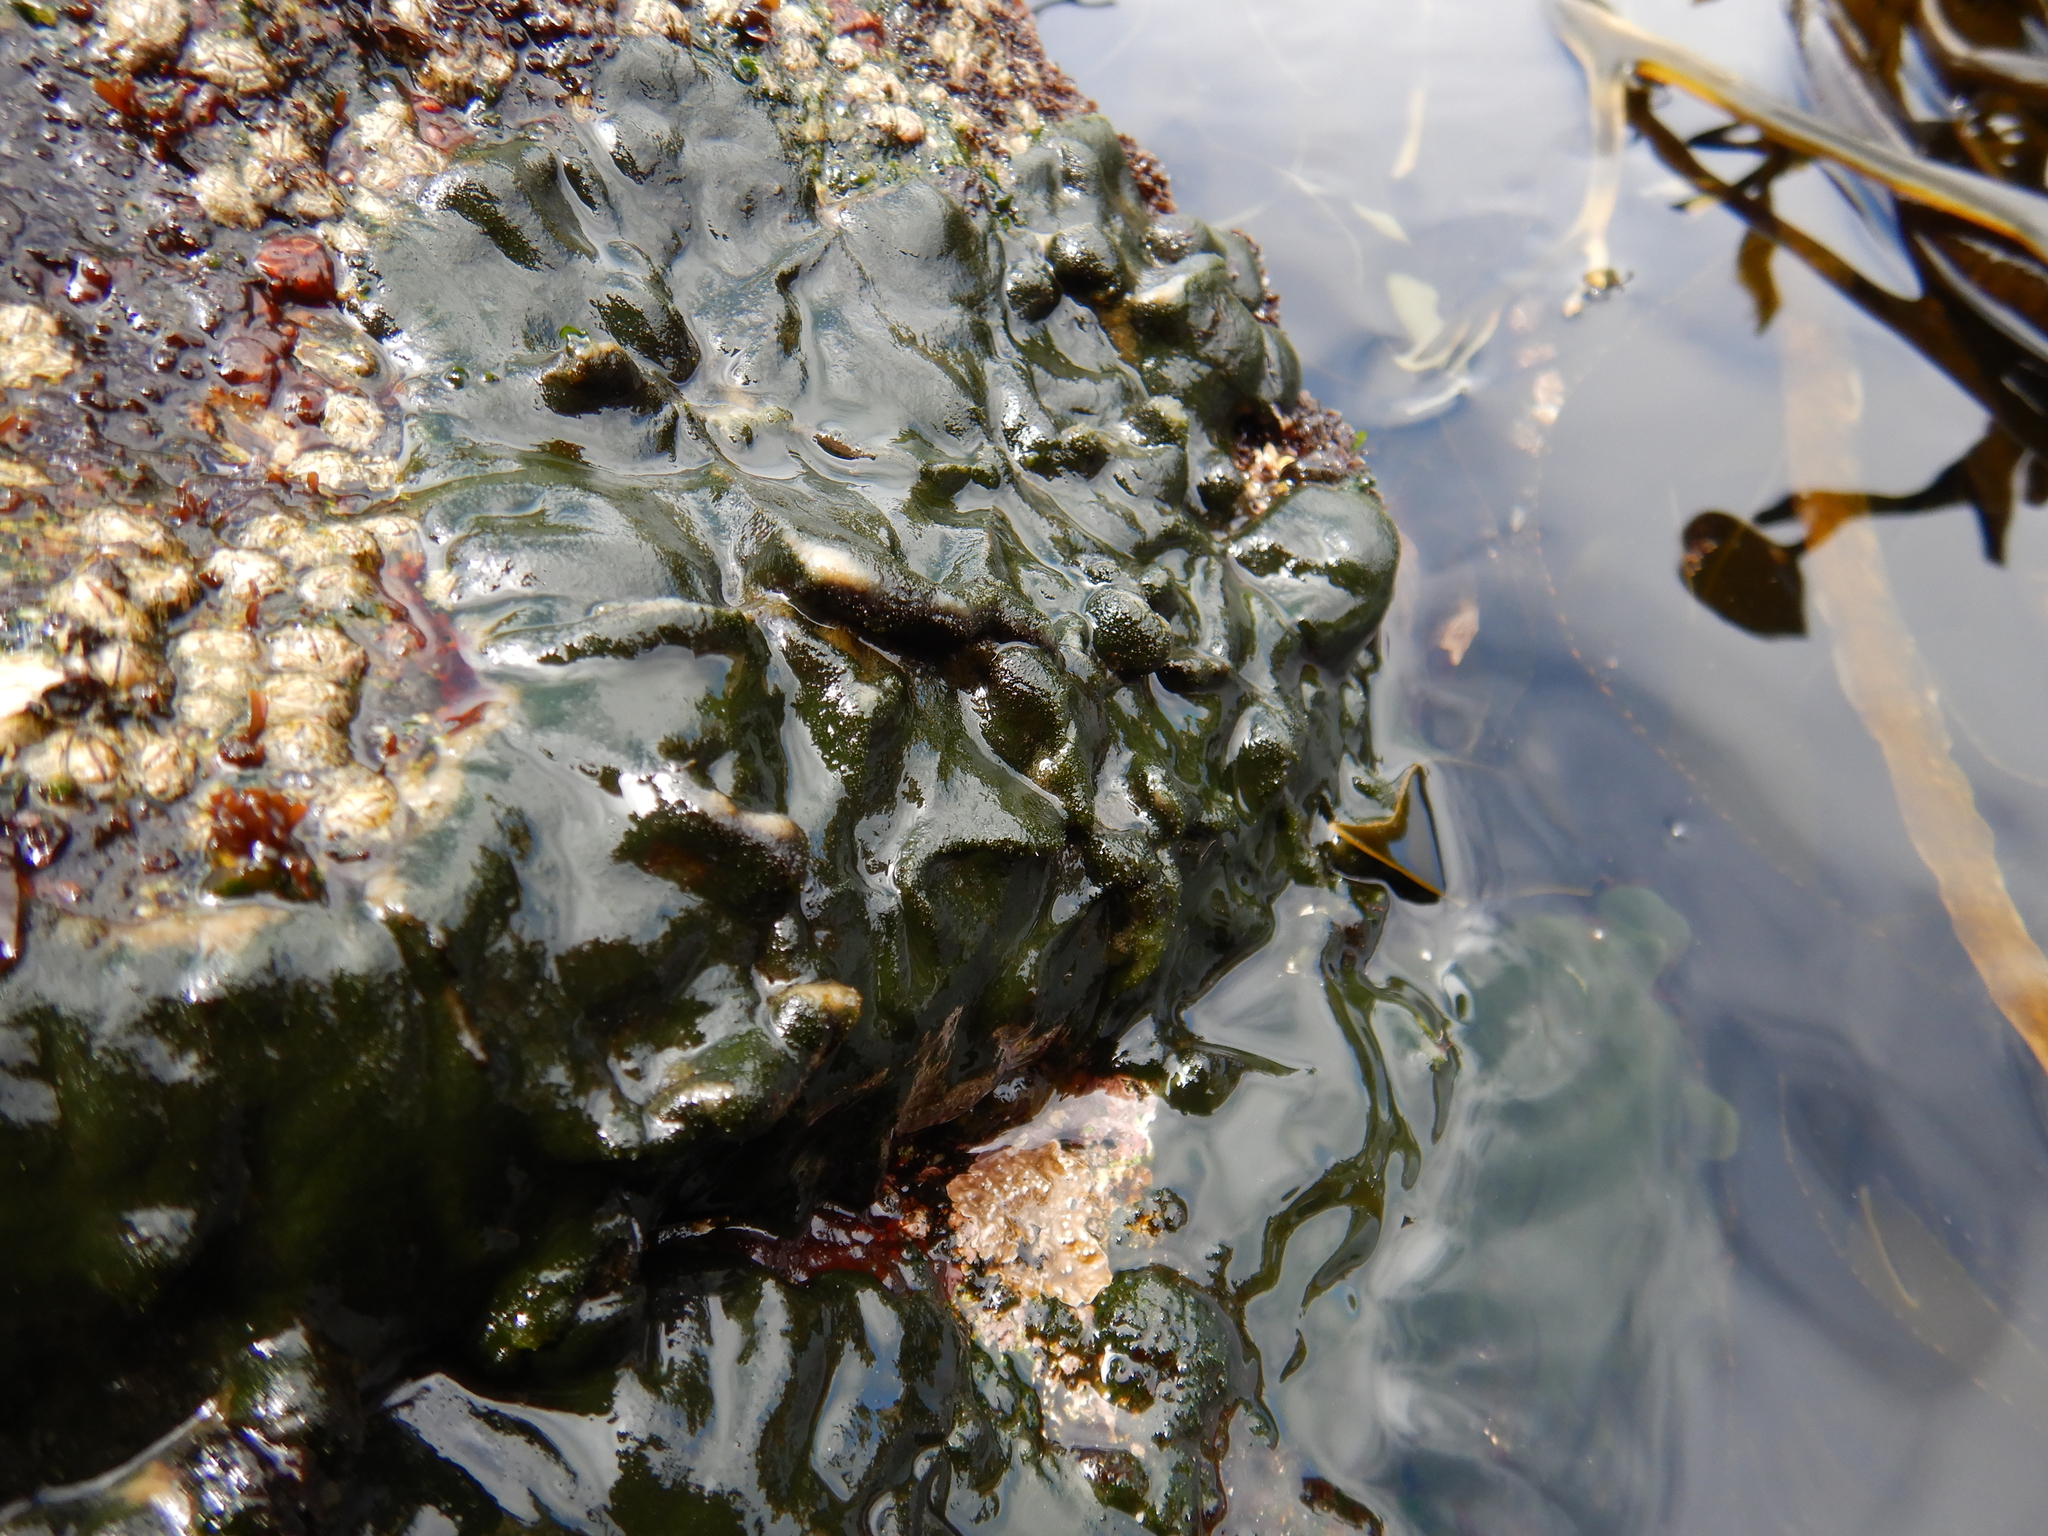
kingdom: Plantae
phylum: Chlorophyta
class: Ulvophyceae
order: Bryopsidales
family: Codiaceae
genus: Codium
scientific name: Codium
